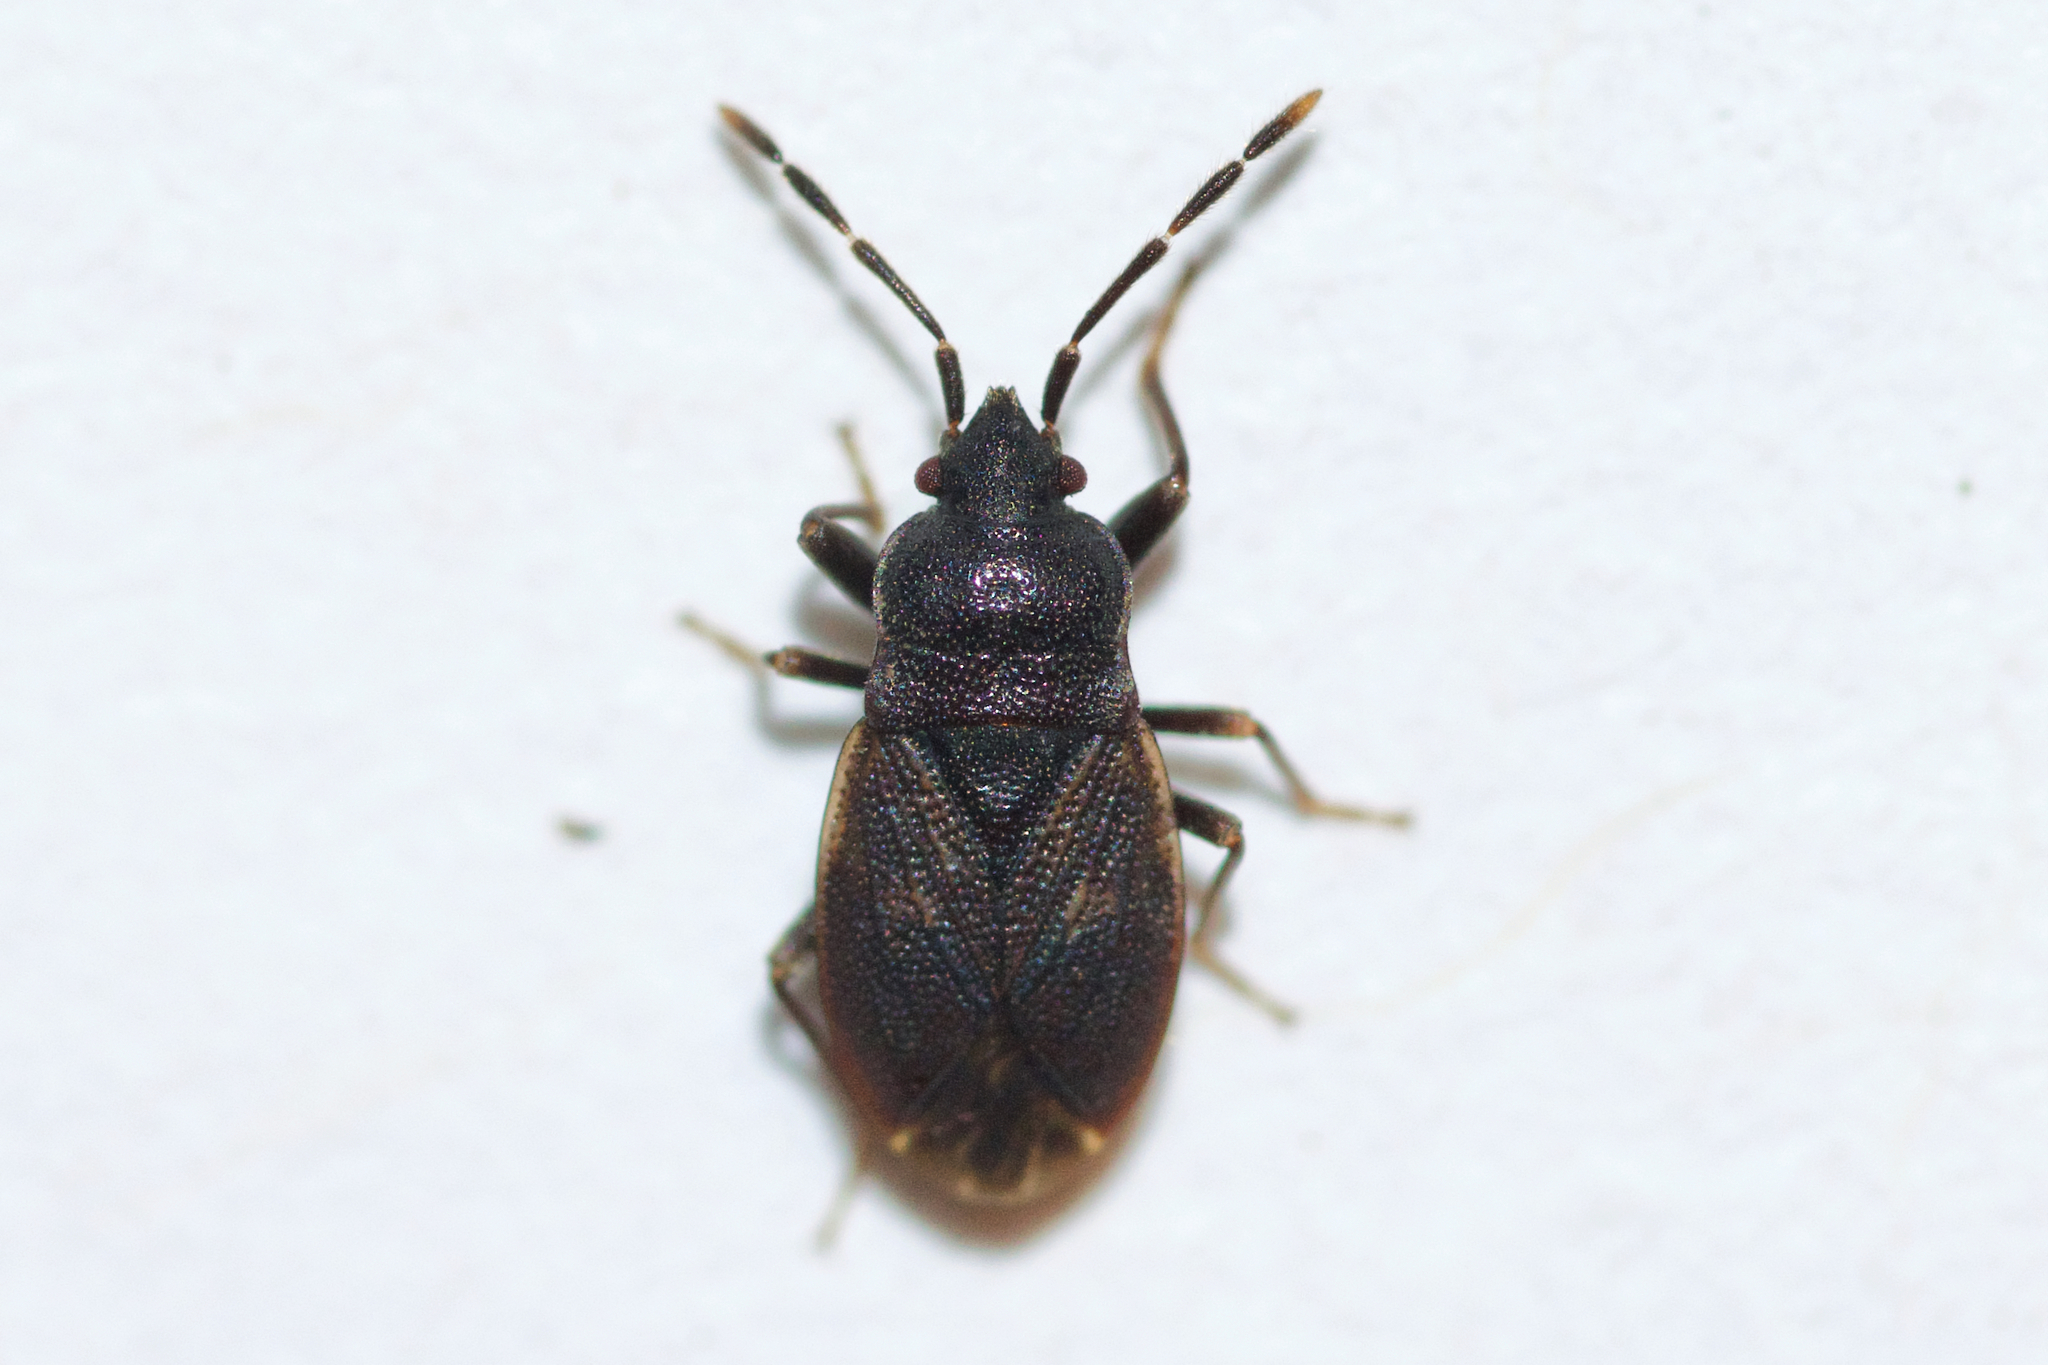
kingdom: Animalia
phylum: Arthropoda
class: Insecta
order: Hemiptera
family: Rhyparochromidae
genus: Drymus
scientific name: Drymus unus
